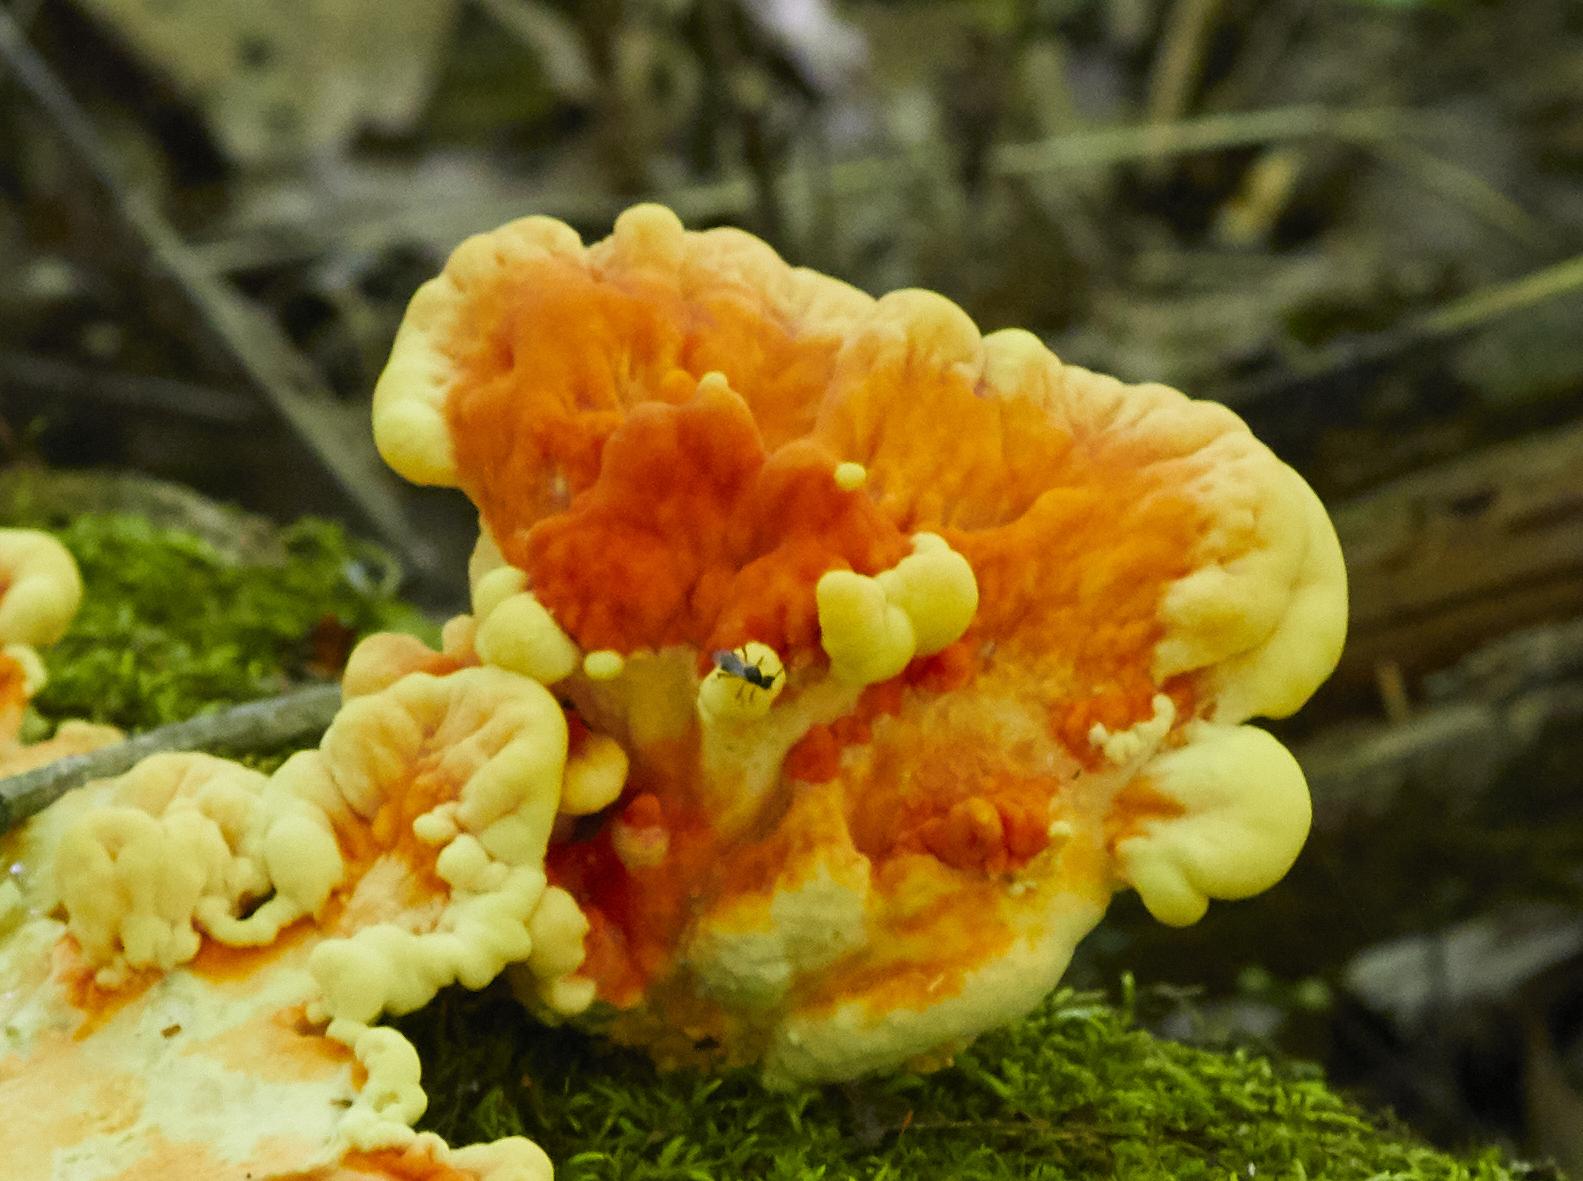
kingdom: Fungi
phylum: Basidiomycota
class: Agaricomycetes
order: Polyporales
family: Laetiporaceae
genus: Laetiporus
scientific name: Laetiporus sulphureus
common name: Chicken of the woods
